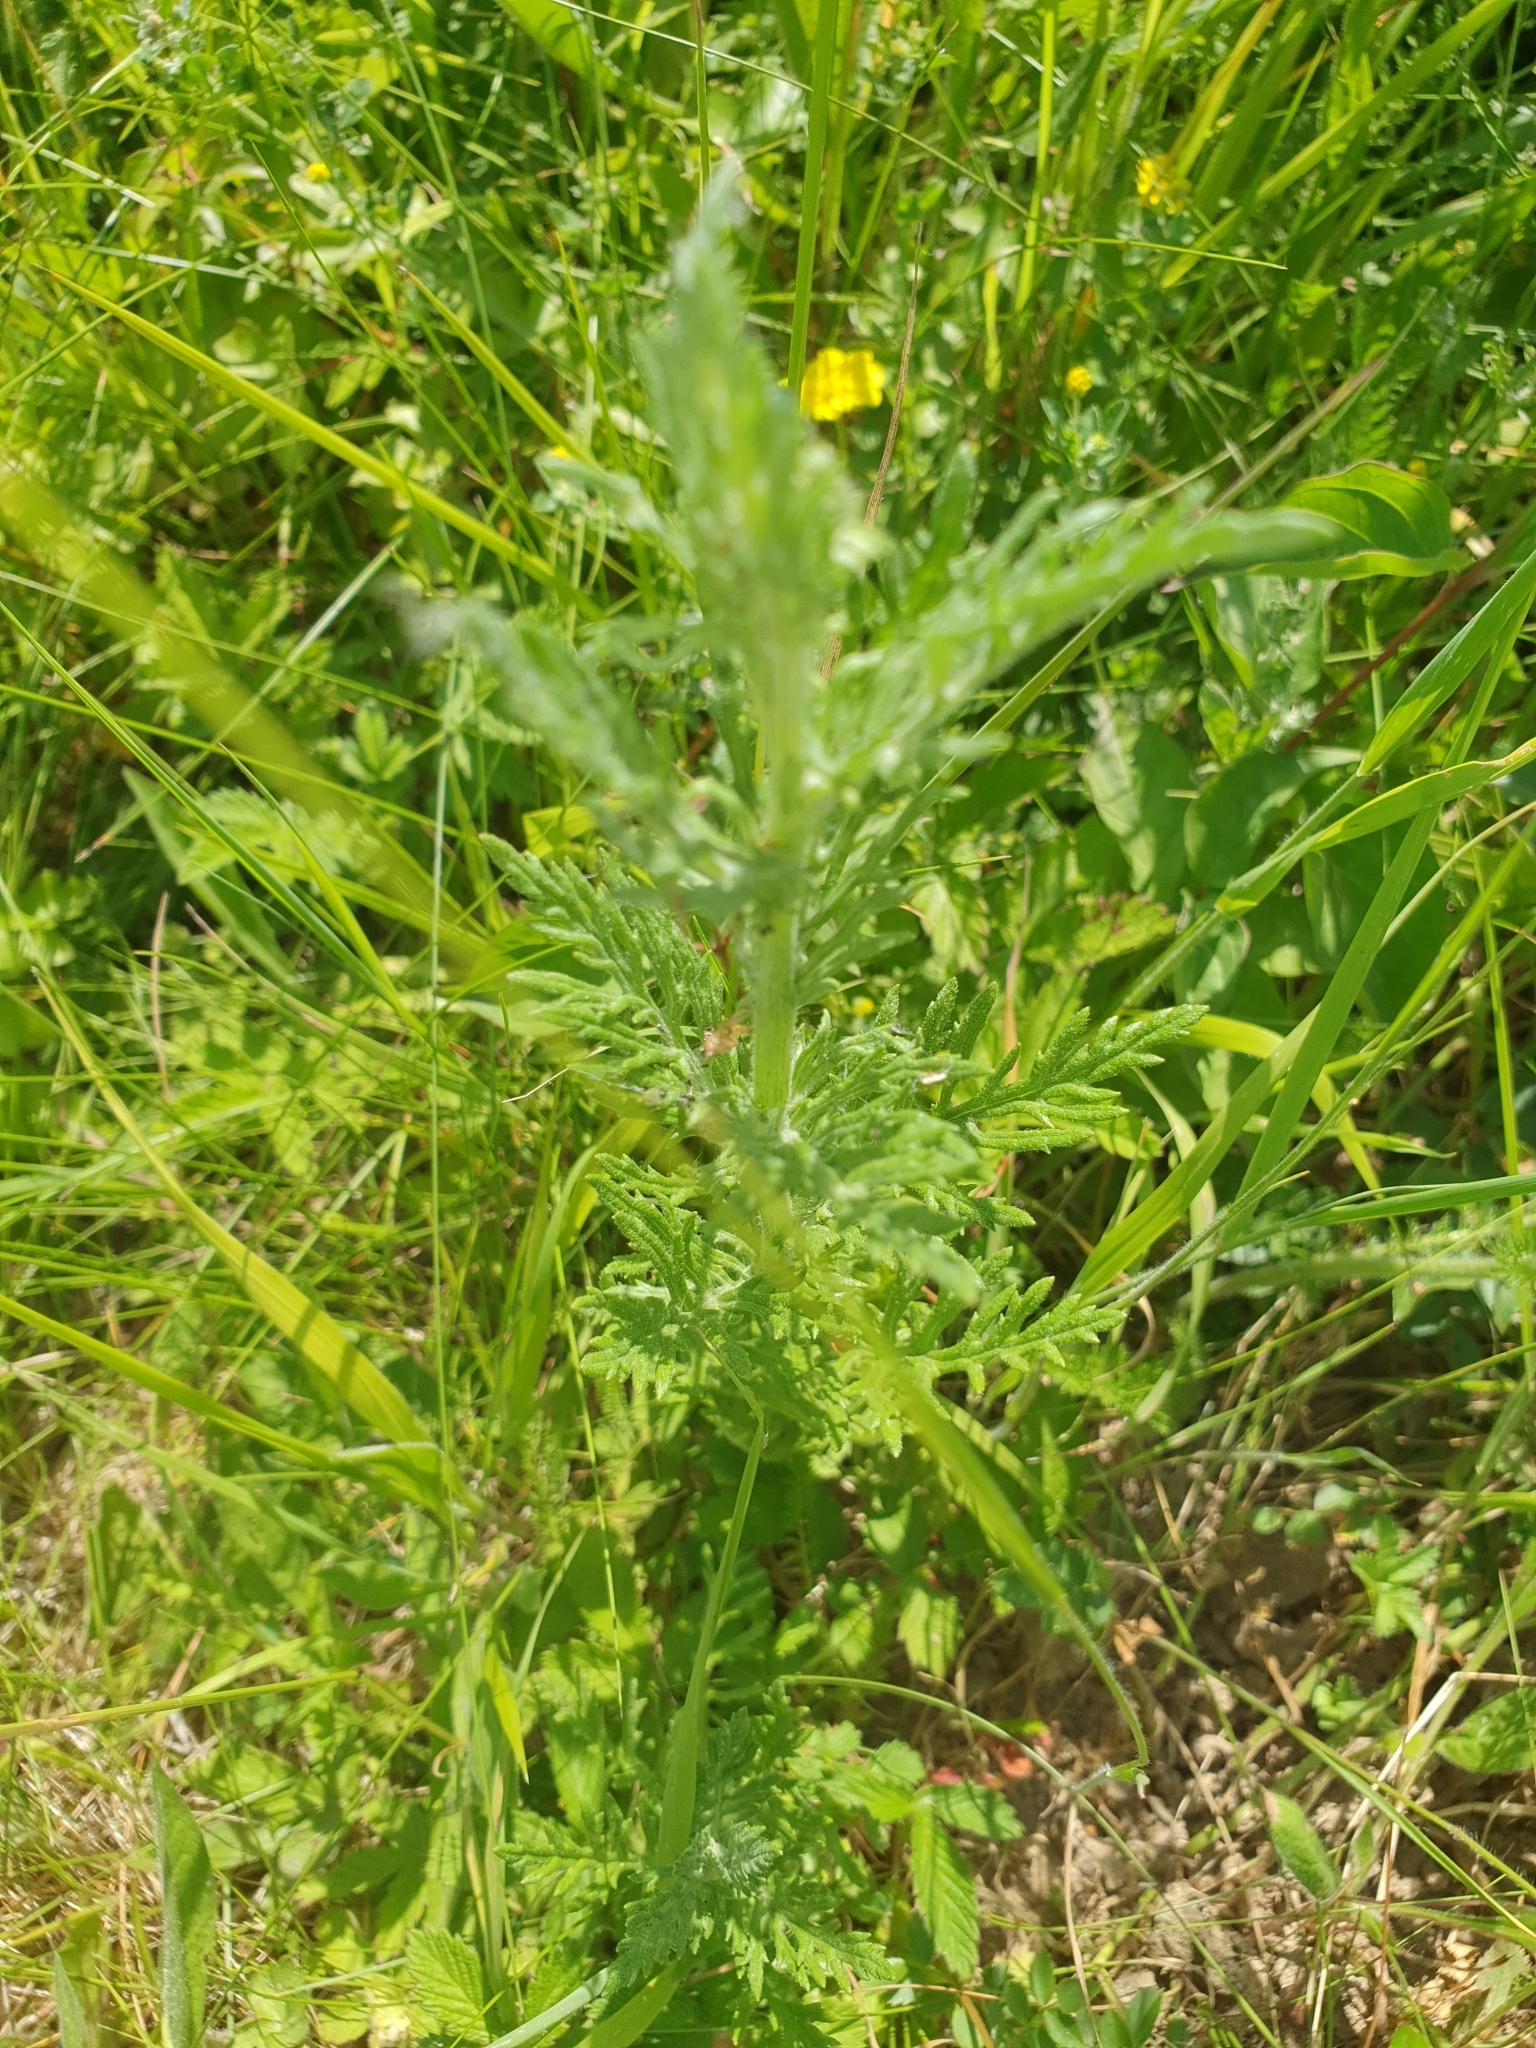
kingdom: Plantae
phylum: Tracheophyta
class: Magnoliopsida
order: Asterales
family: Asteraceae
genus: Jacobaea
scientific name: Jacobaea erucifolia
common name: Hoary ragwort
